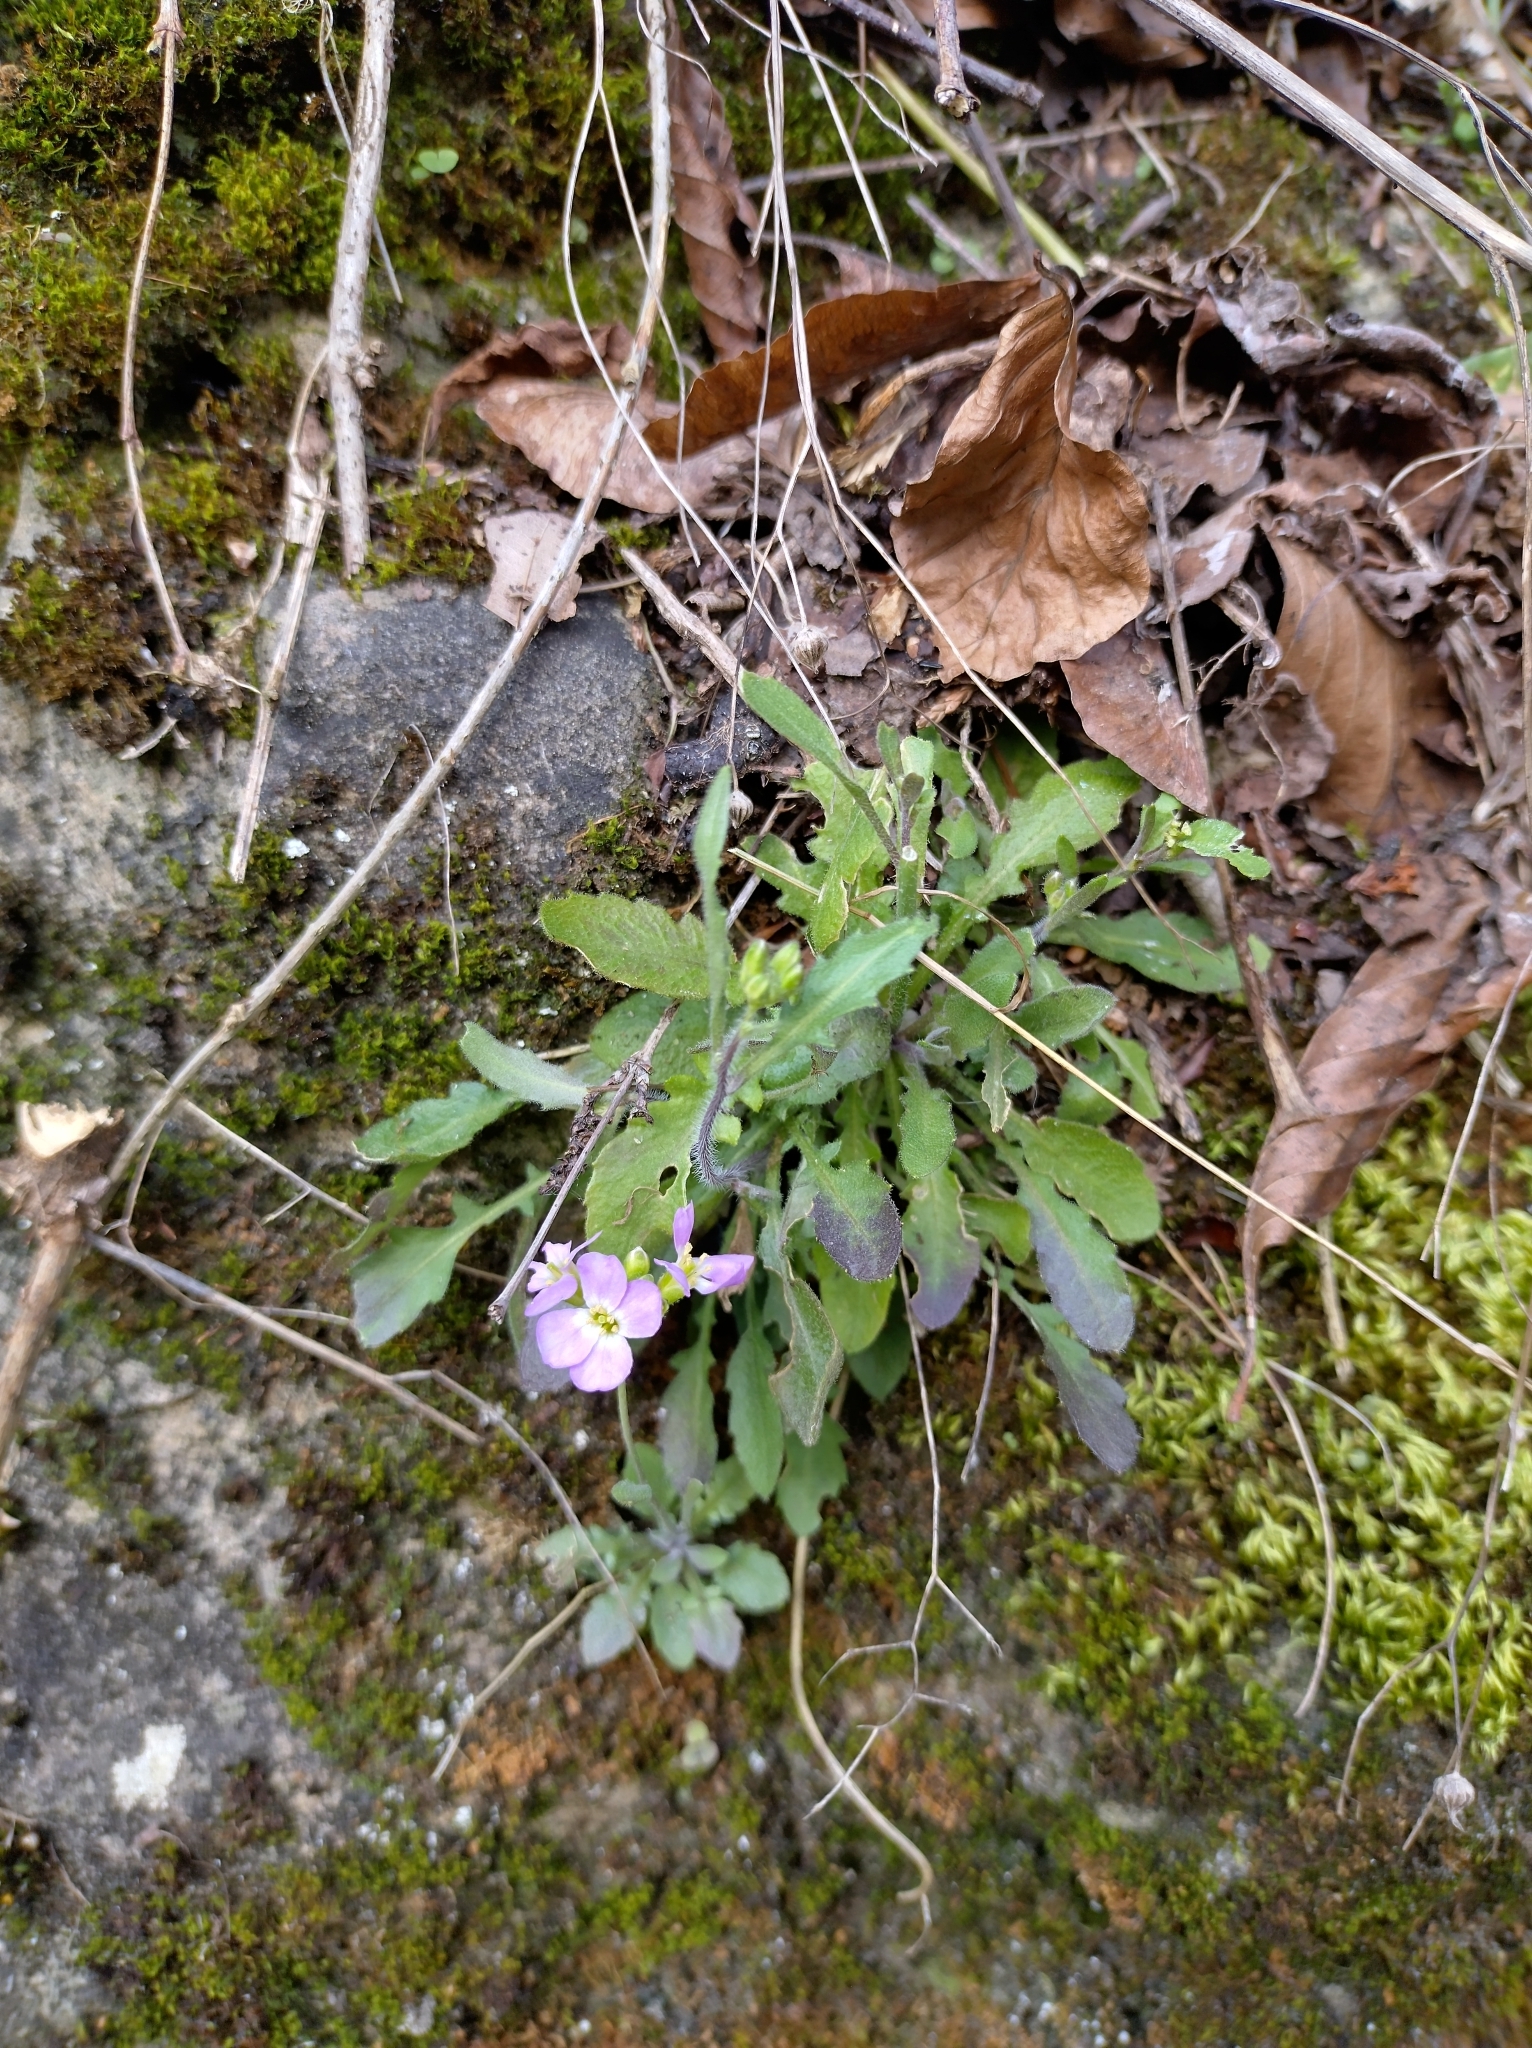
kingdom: Plantae
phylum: Tracheophyta
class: Magnoliopsida
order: Brassicales
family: Brassicaceae
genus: Arabidopsis
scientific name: Arabidopsis arenosa
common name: Sand rock-cress
